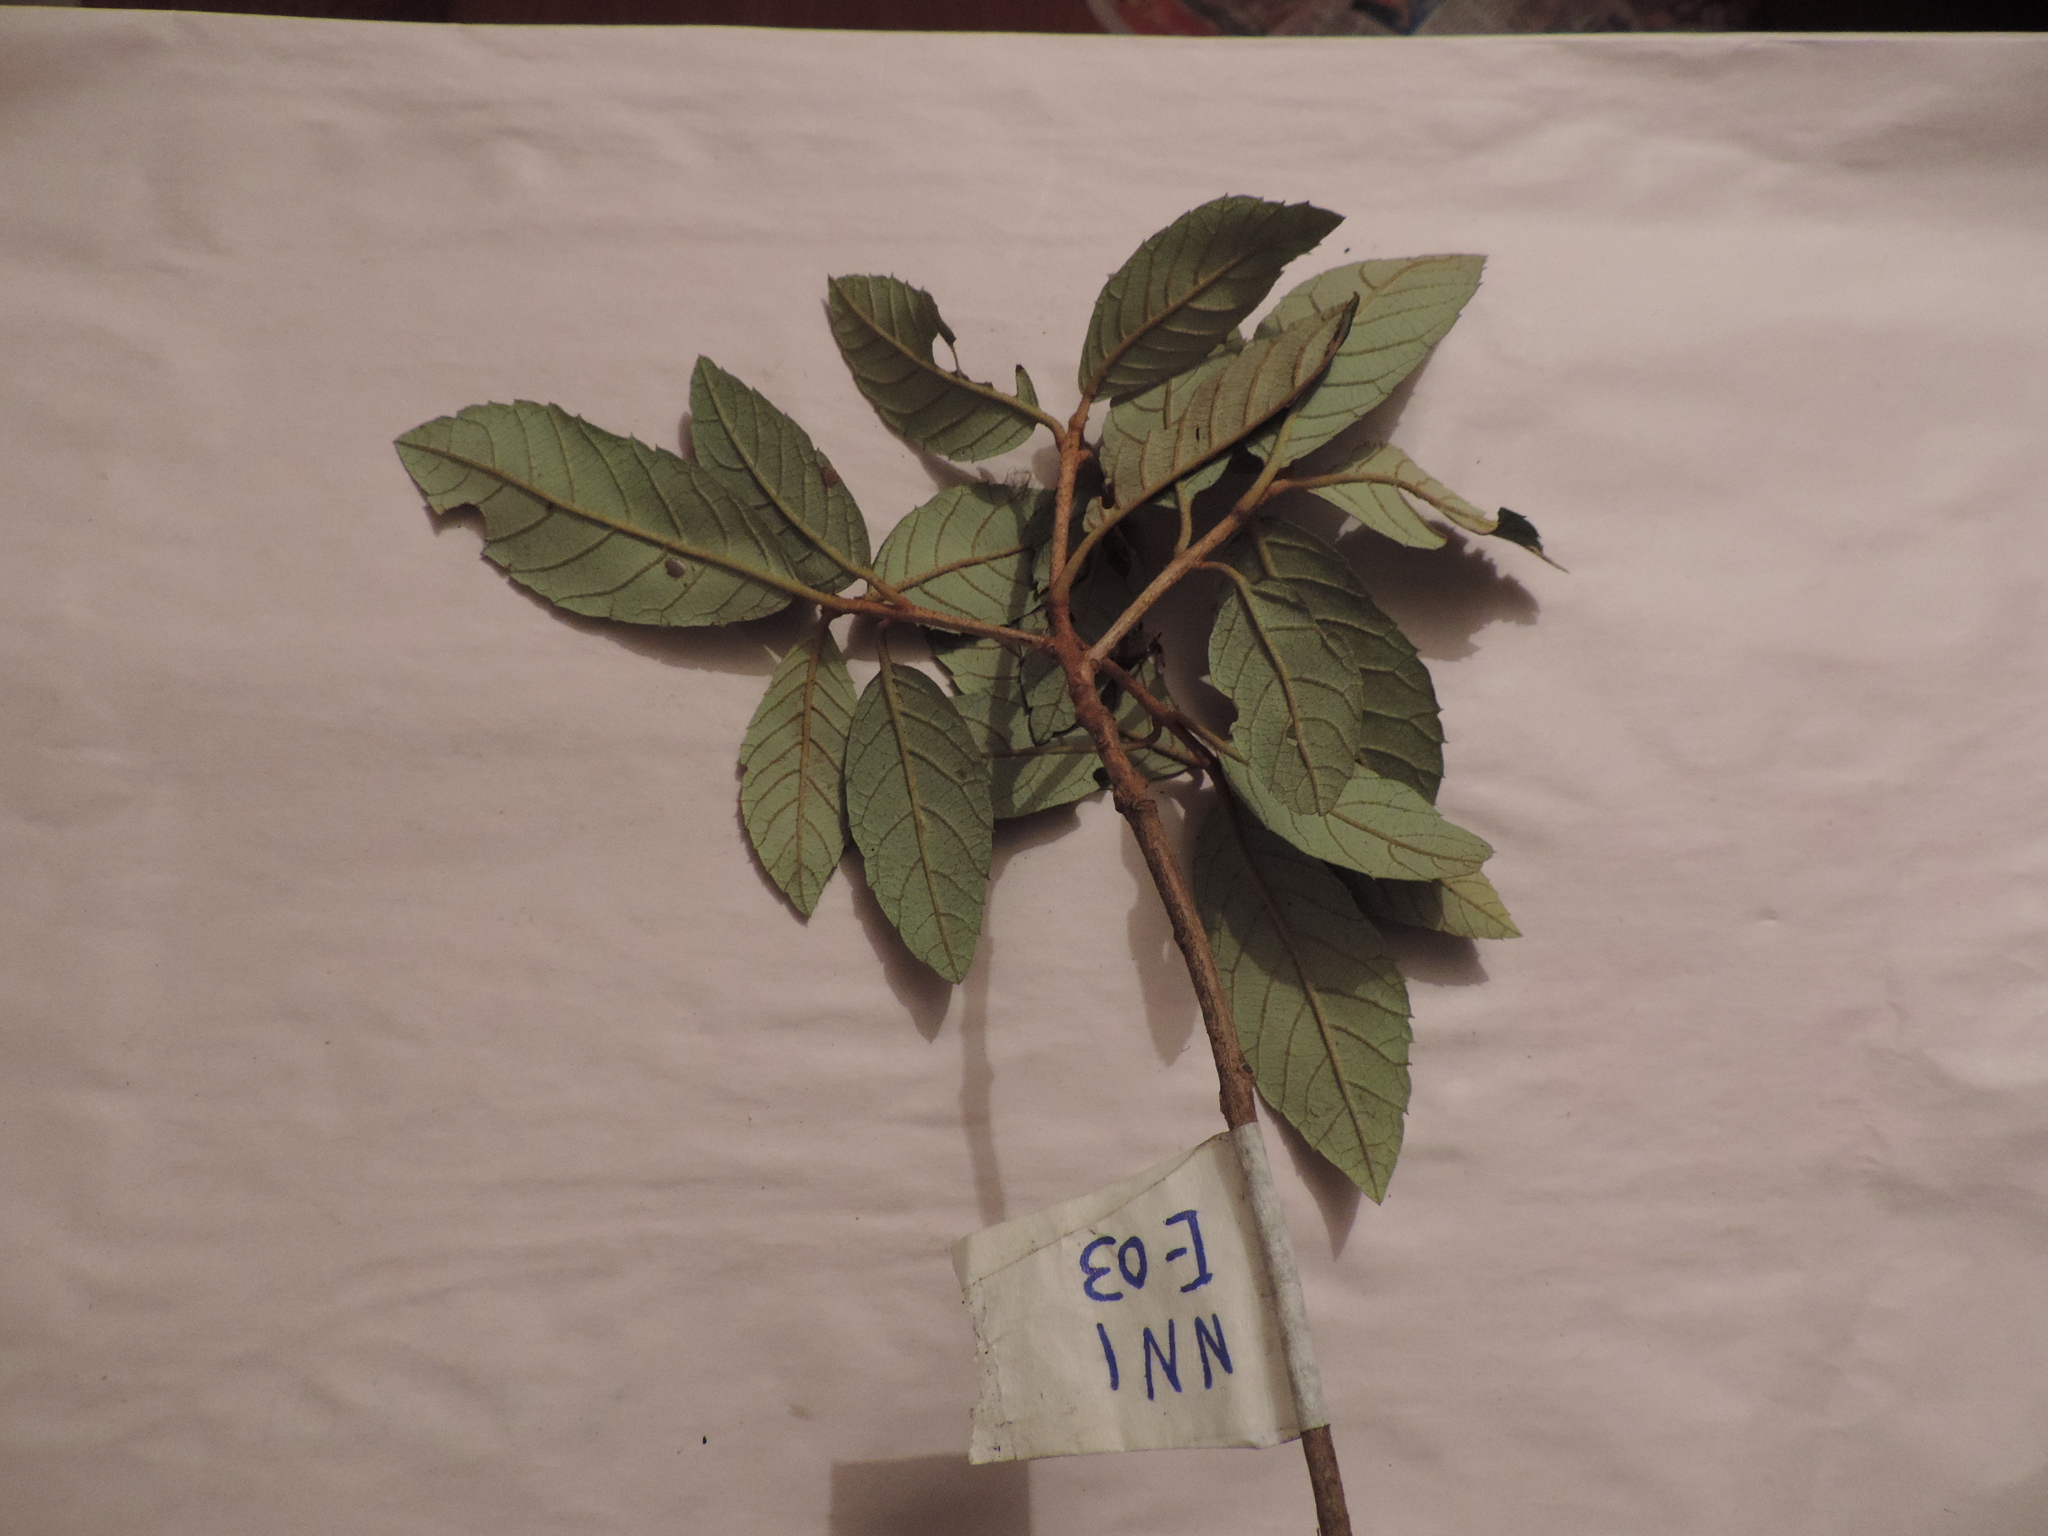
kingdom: Plantae
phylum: Tracheophyta
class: Magnoliopsida
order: Ericales
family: Clethraceae
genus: Clethra
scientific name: Clethra repanda
